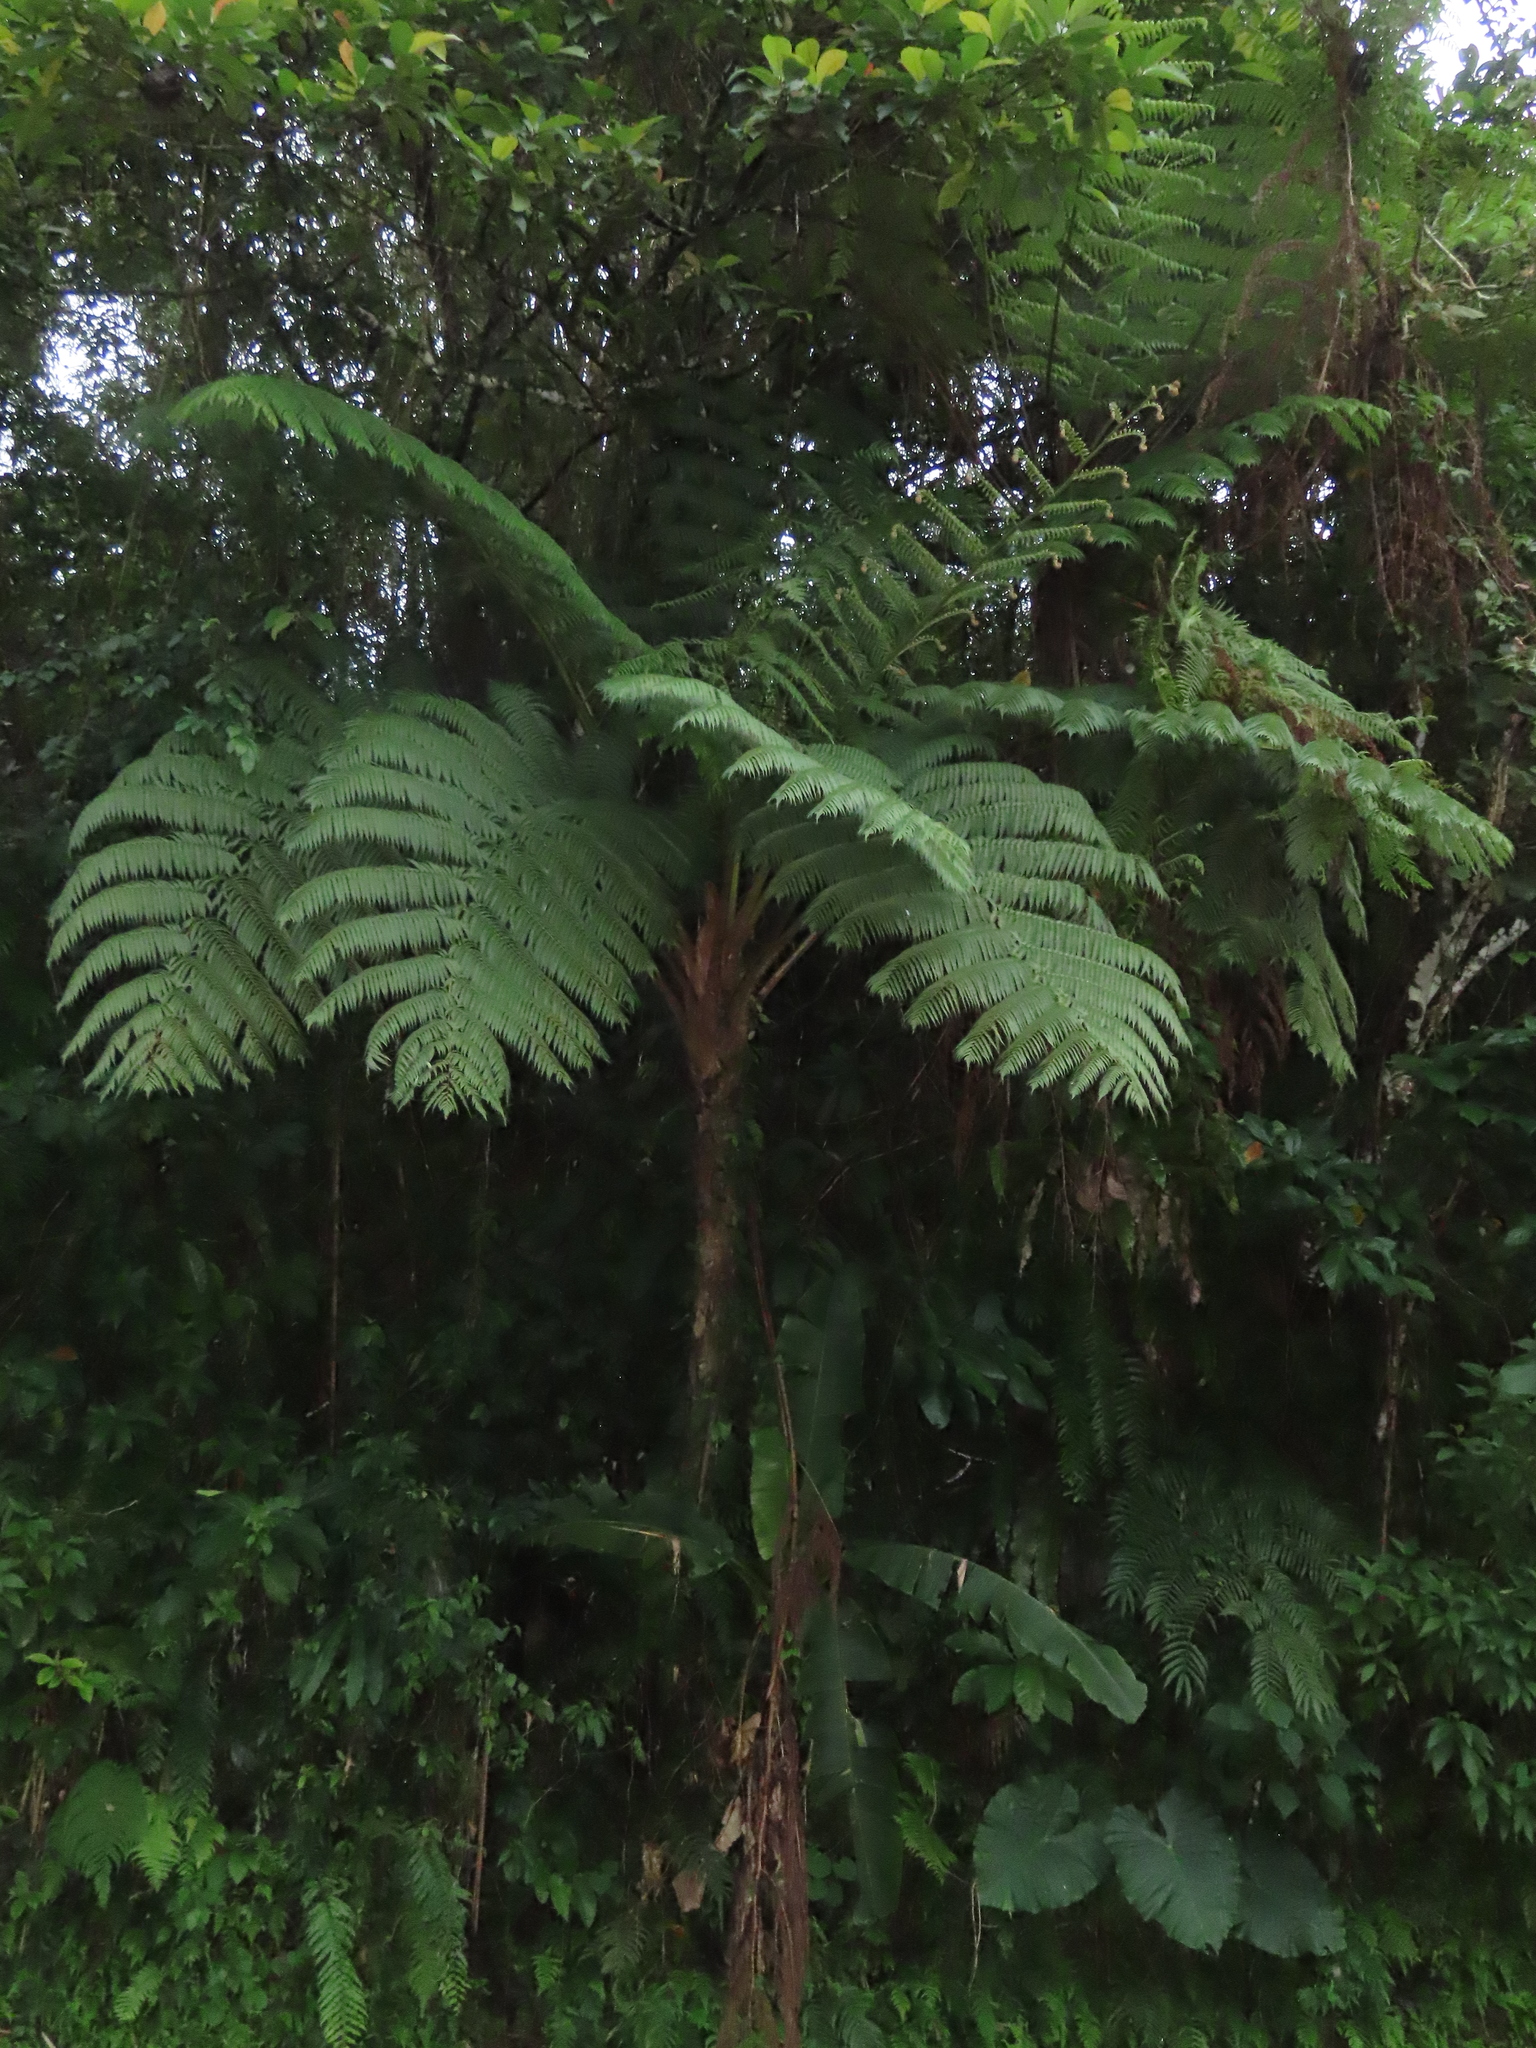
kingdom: Plantae
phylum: Tracheophyta
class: Polypodiopsida
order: Cyatheales
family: Cyatheaceae
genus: Alsophila
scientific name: Alsophila lepifera
